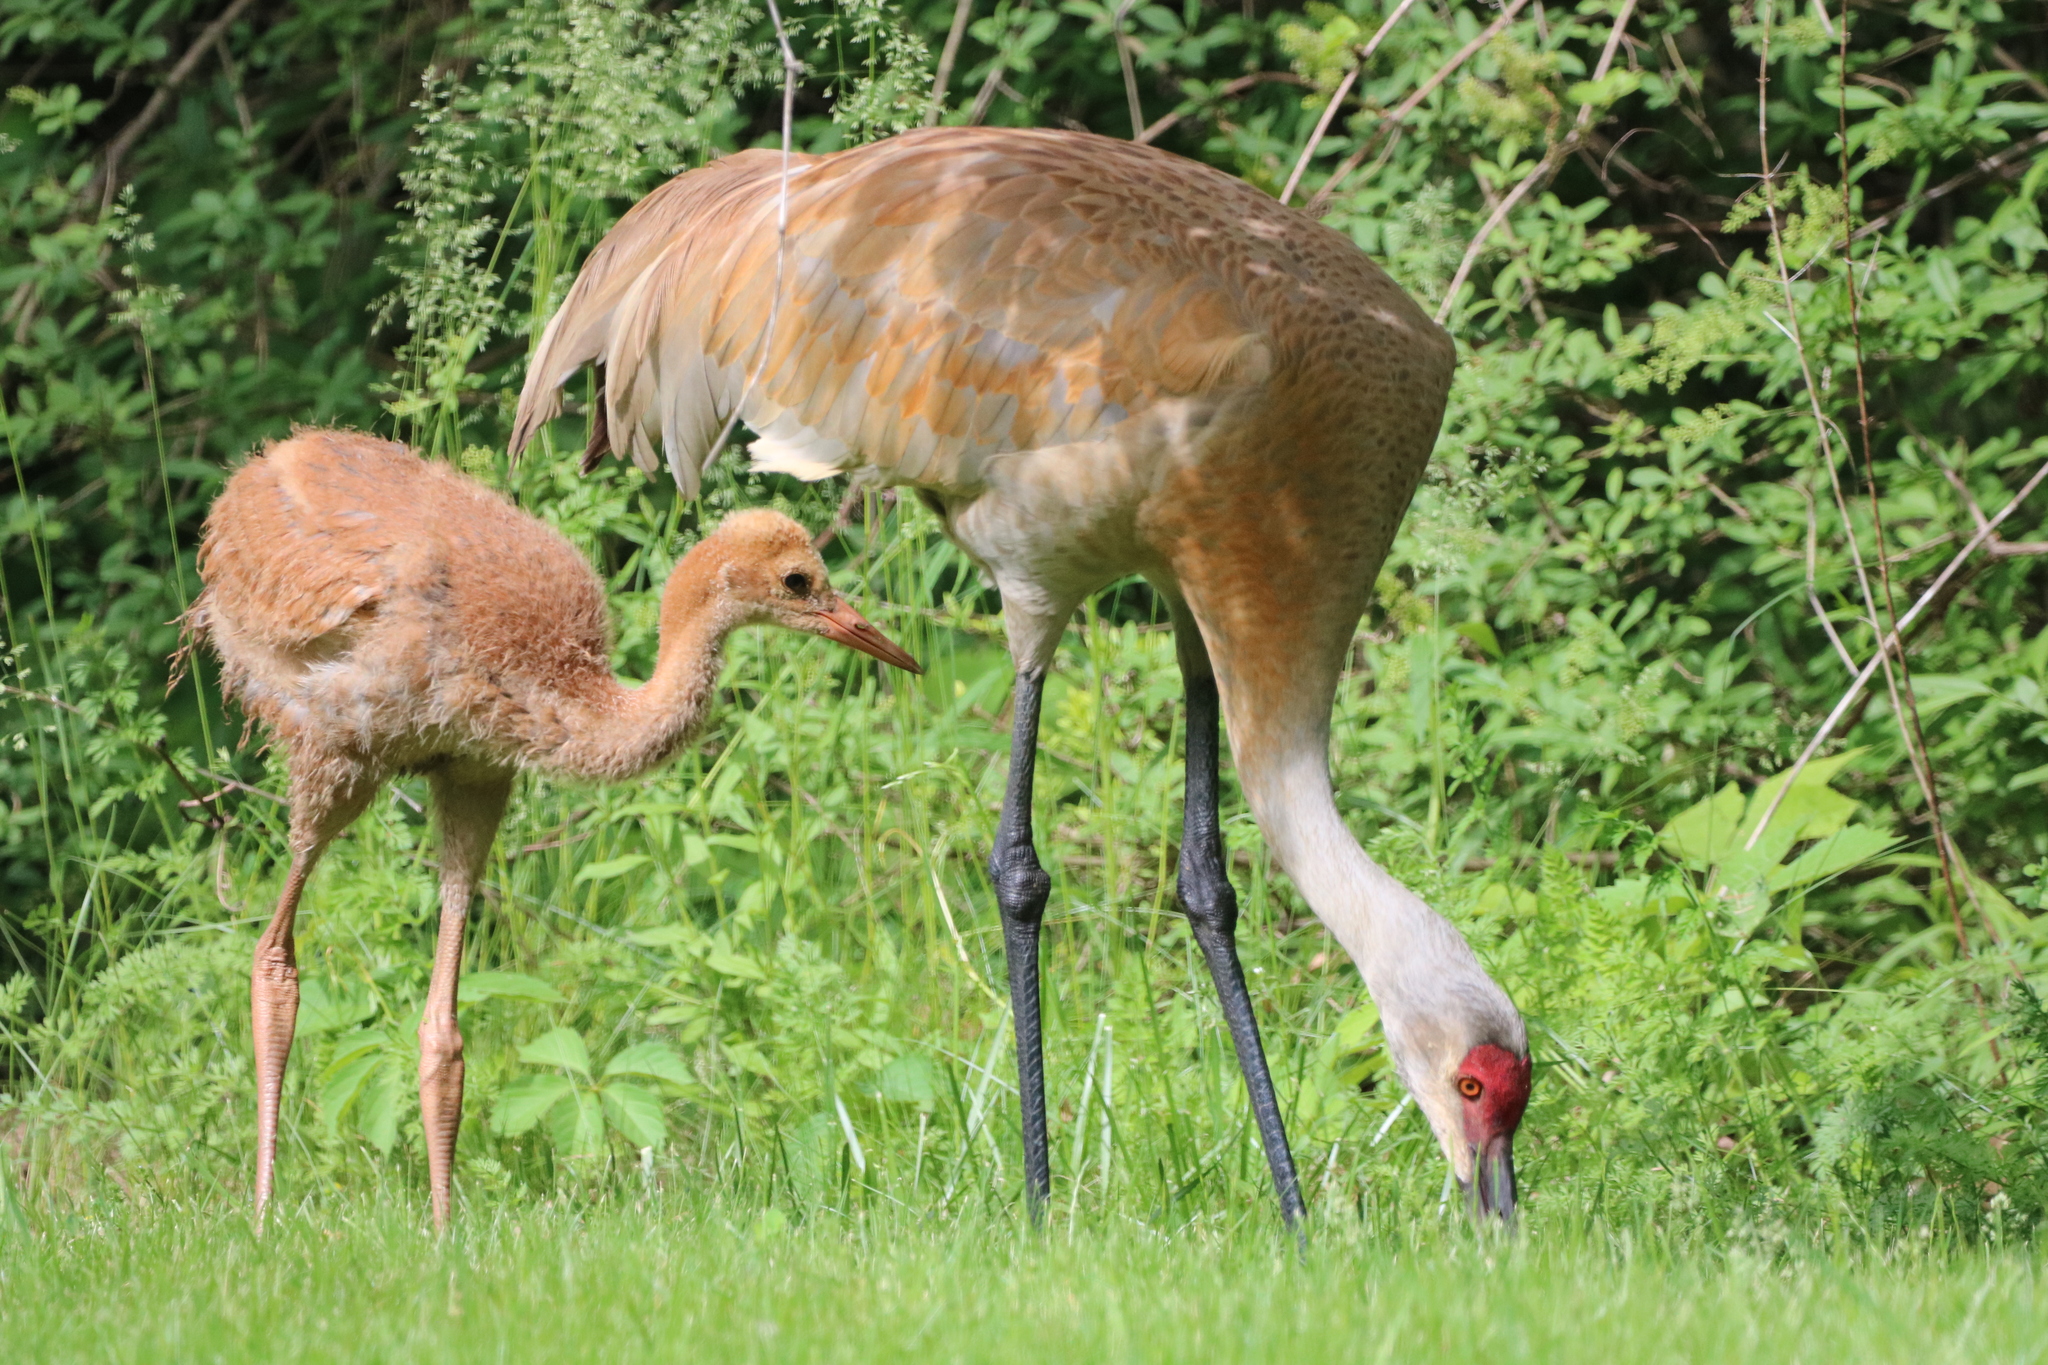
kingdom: Animalia
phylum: Chordata
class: Aves
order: Gruiformes
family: Gruidae
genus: Grus
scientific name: Grus canadensis
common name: Sandhill crane
